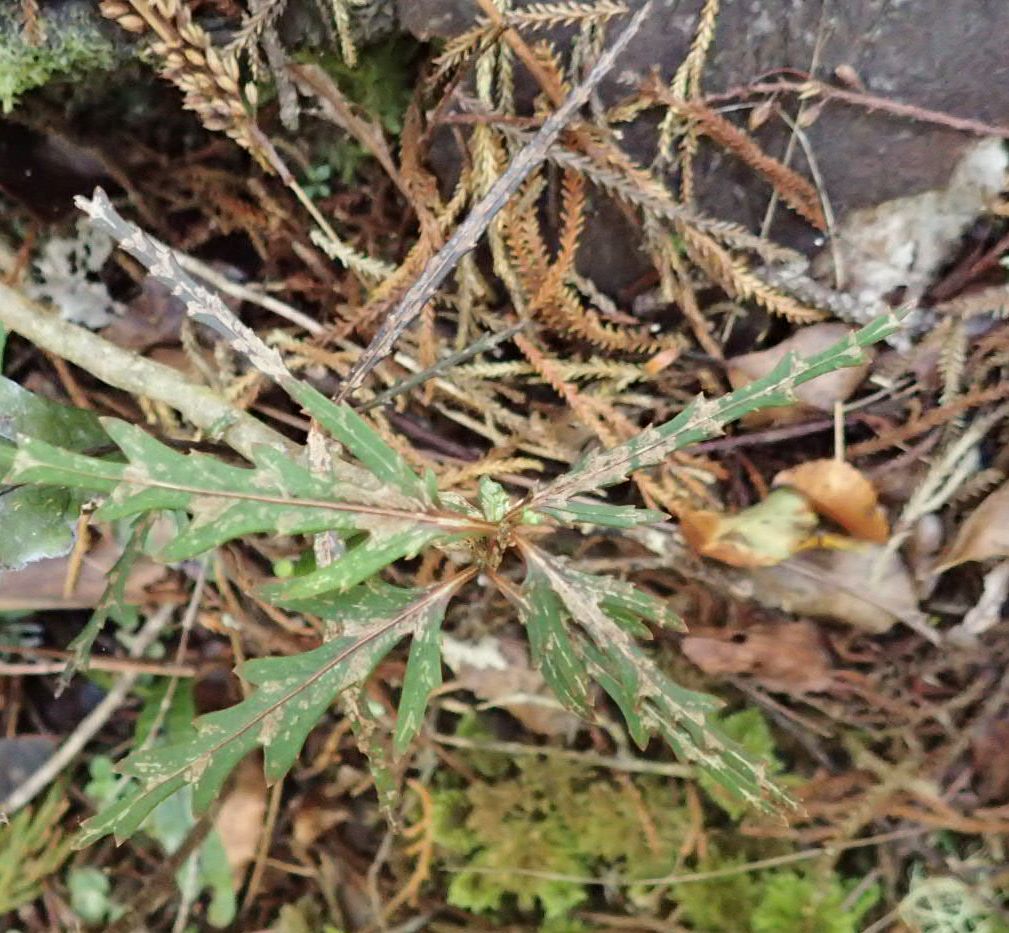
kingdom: Plantae
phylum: Tracheophyta
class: Magnoliopsida
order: Apiales
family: Araliaceae
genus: Pseudopanax
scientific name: Pseudopanax crassifolius
